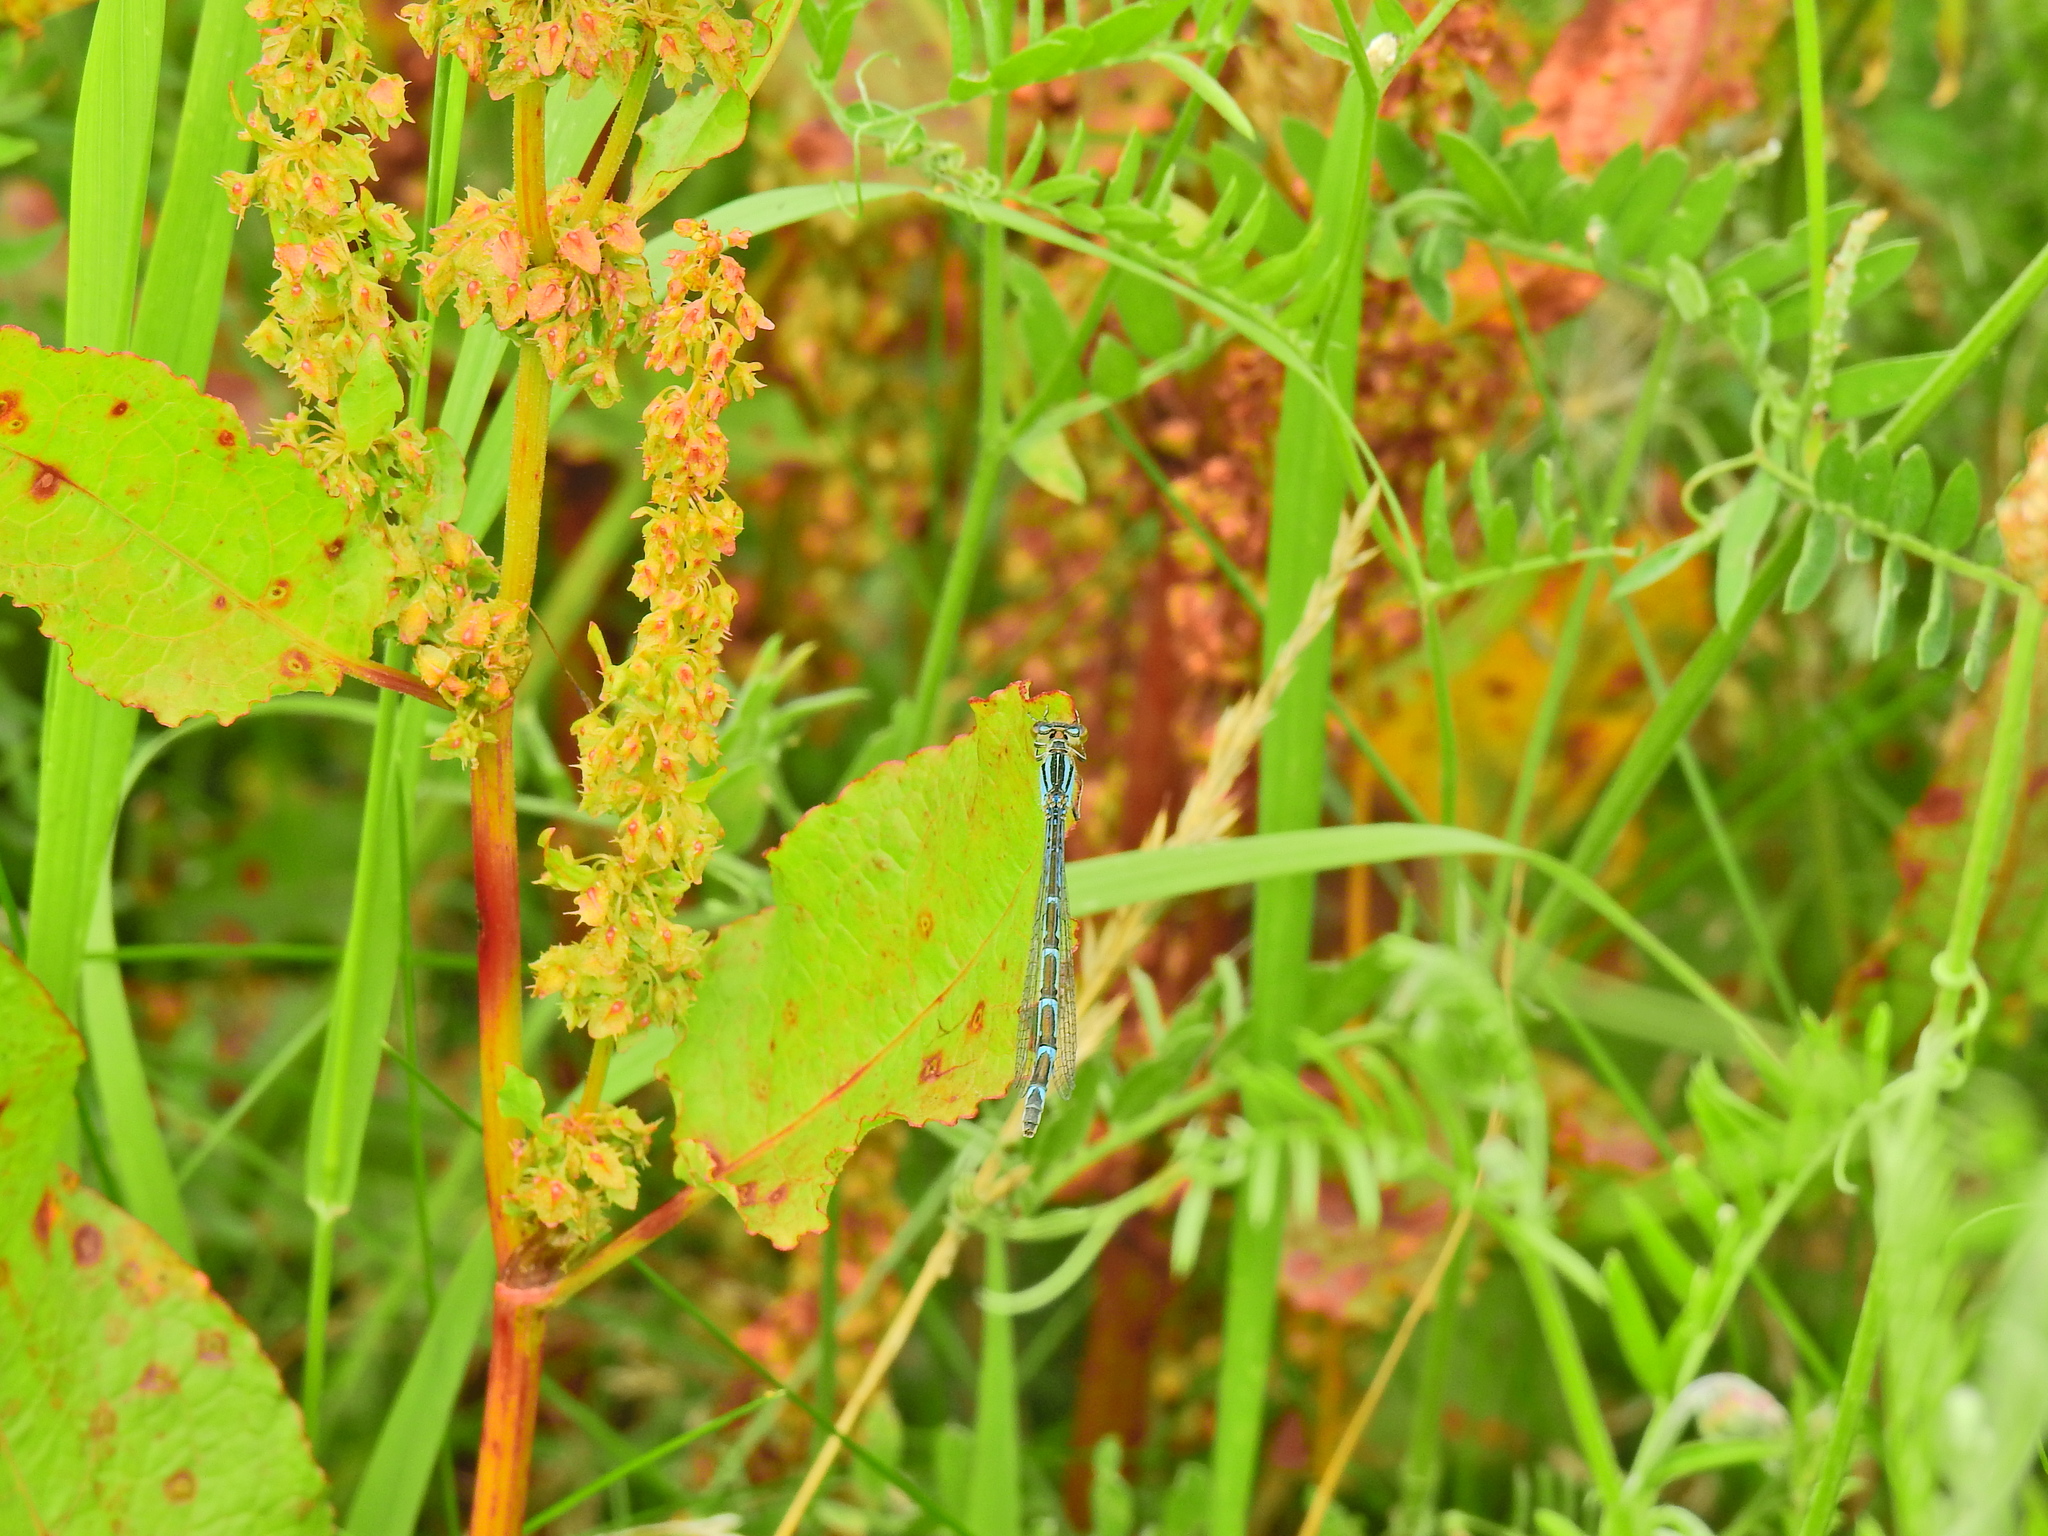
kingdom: Animalia
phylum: Arthropoda
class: Insecta
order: Odonata
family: Coenagrionidae
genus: Enallagma
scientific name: Enallagma cyathigerum
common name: Common blue damselfly
